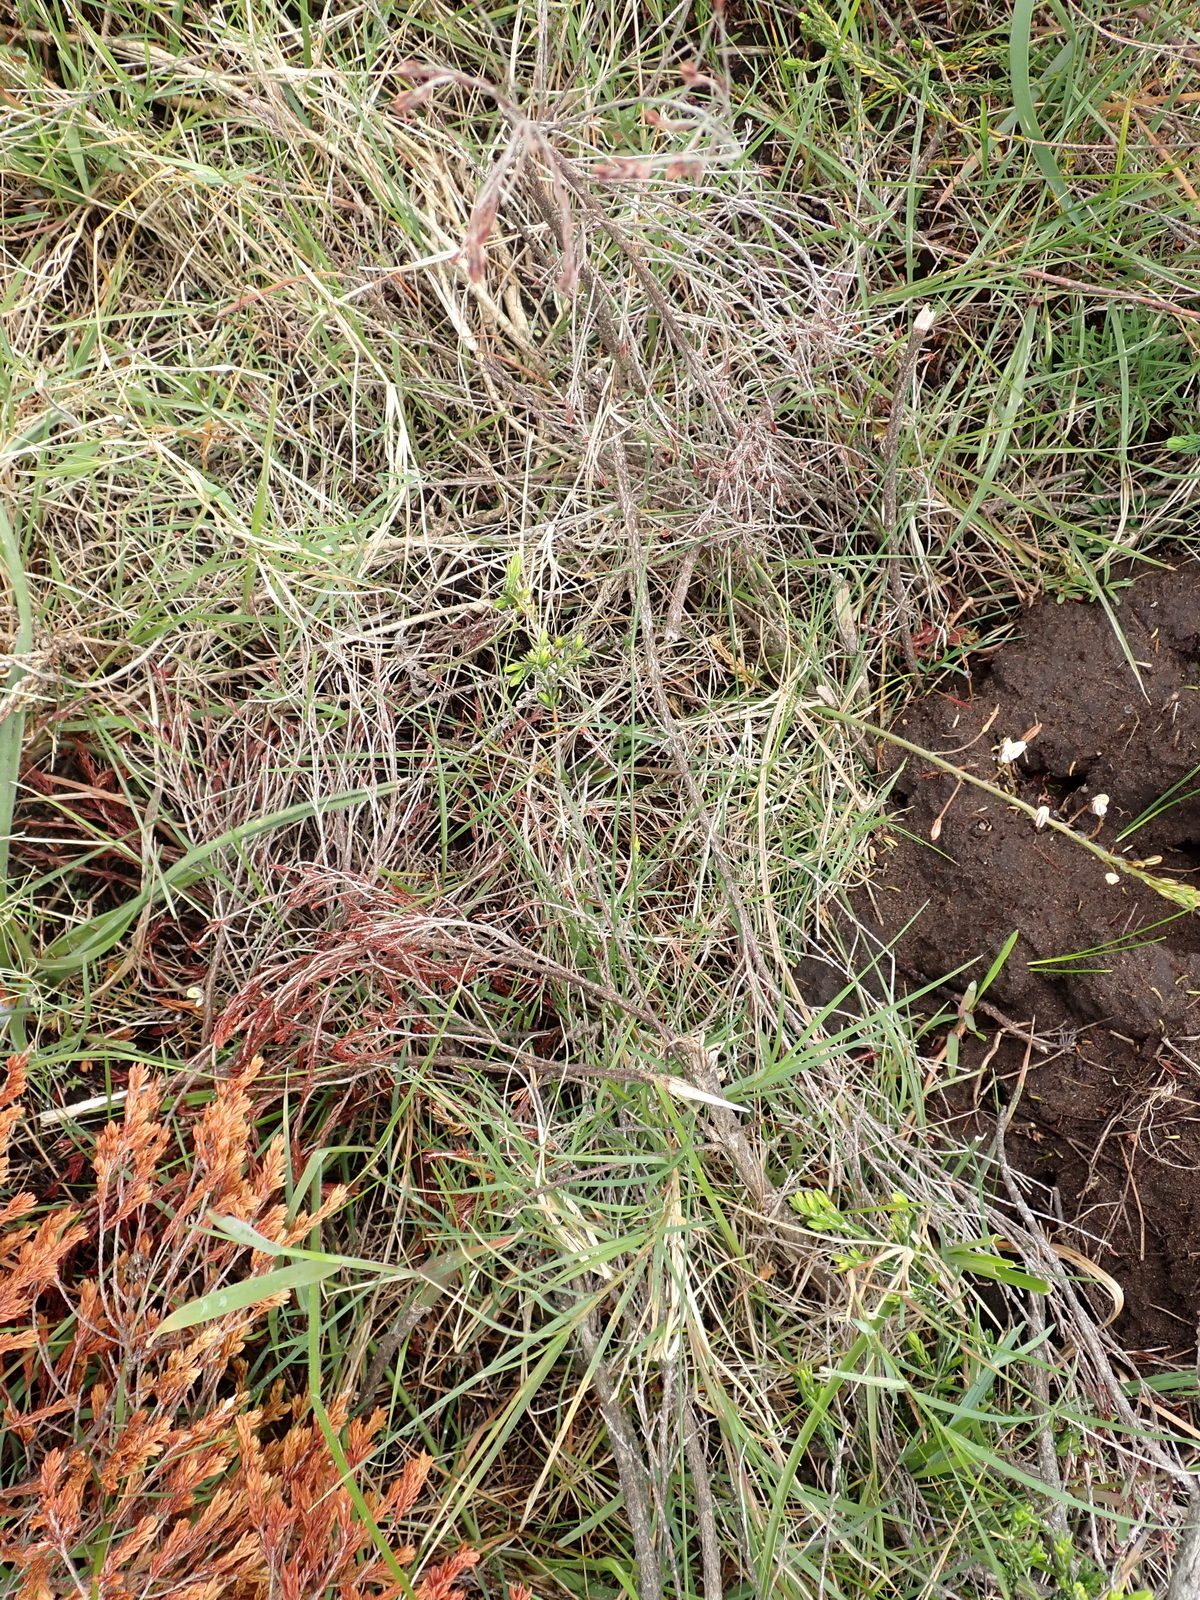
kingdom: Plantae
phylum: Tracheophyta
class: Liliopsida
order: Asparagales
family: Asphodelaceae
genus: Trachyandra
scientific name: Trachyandra affinis
